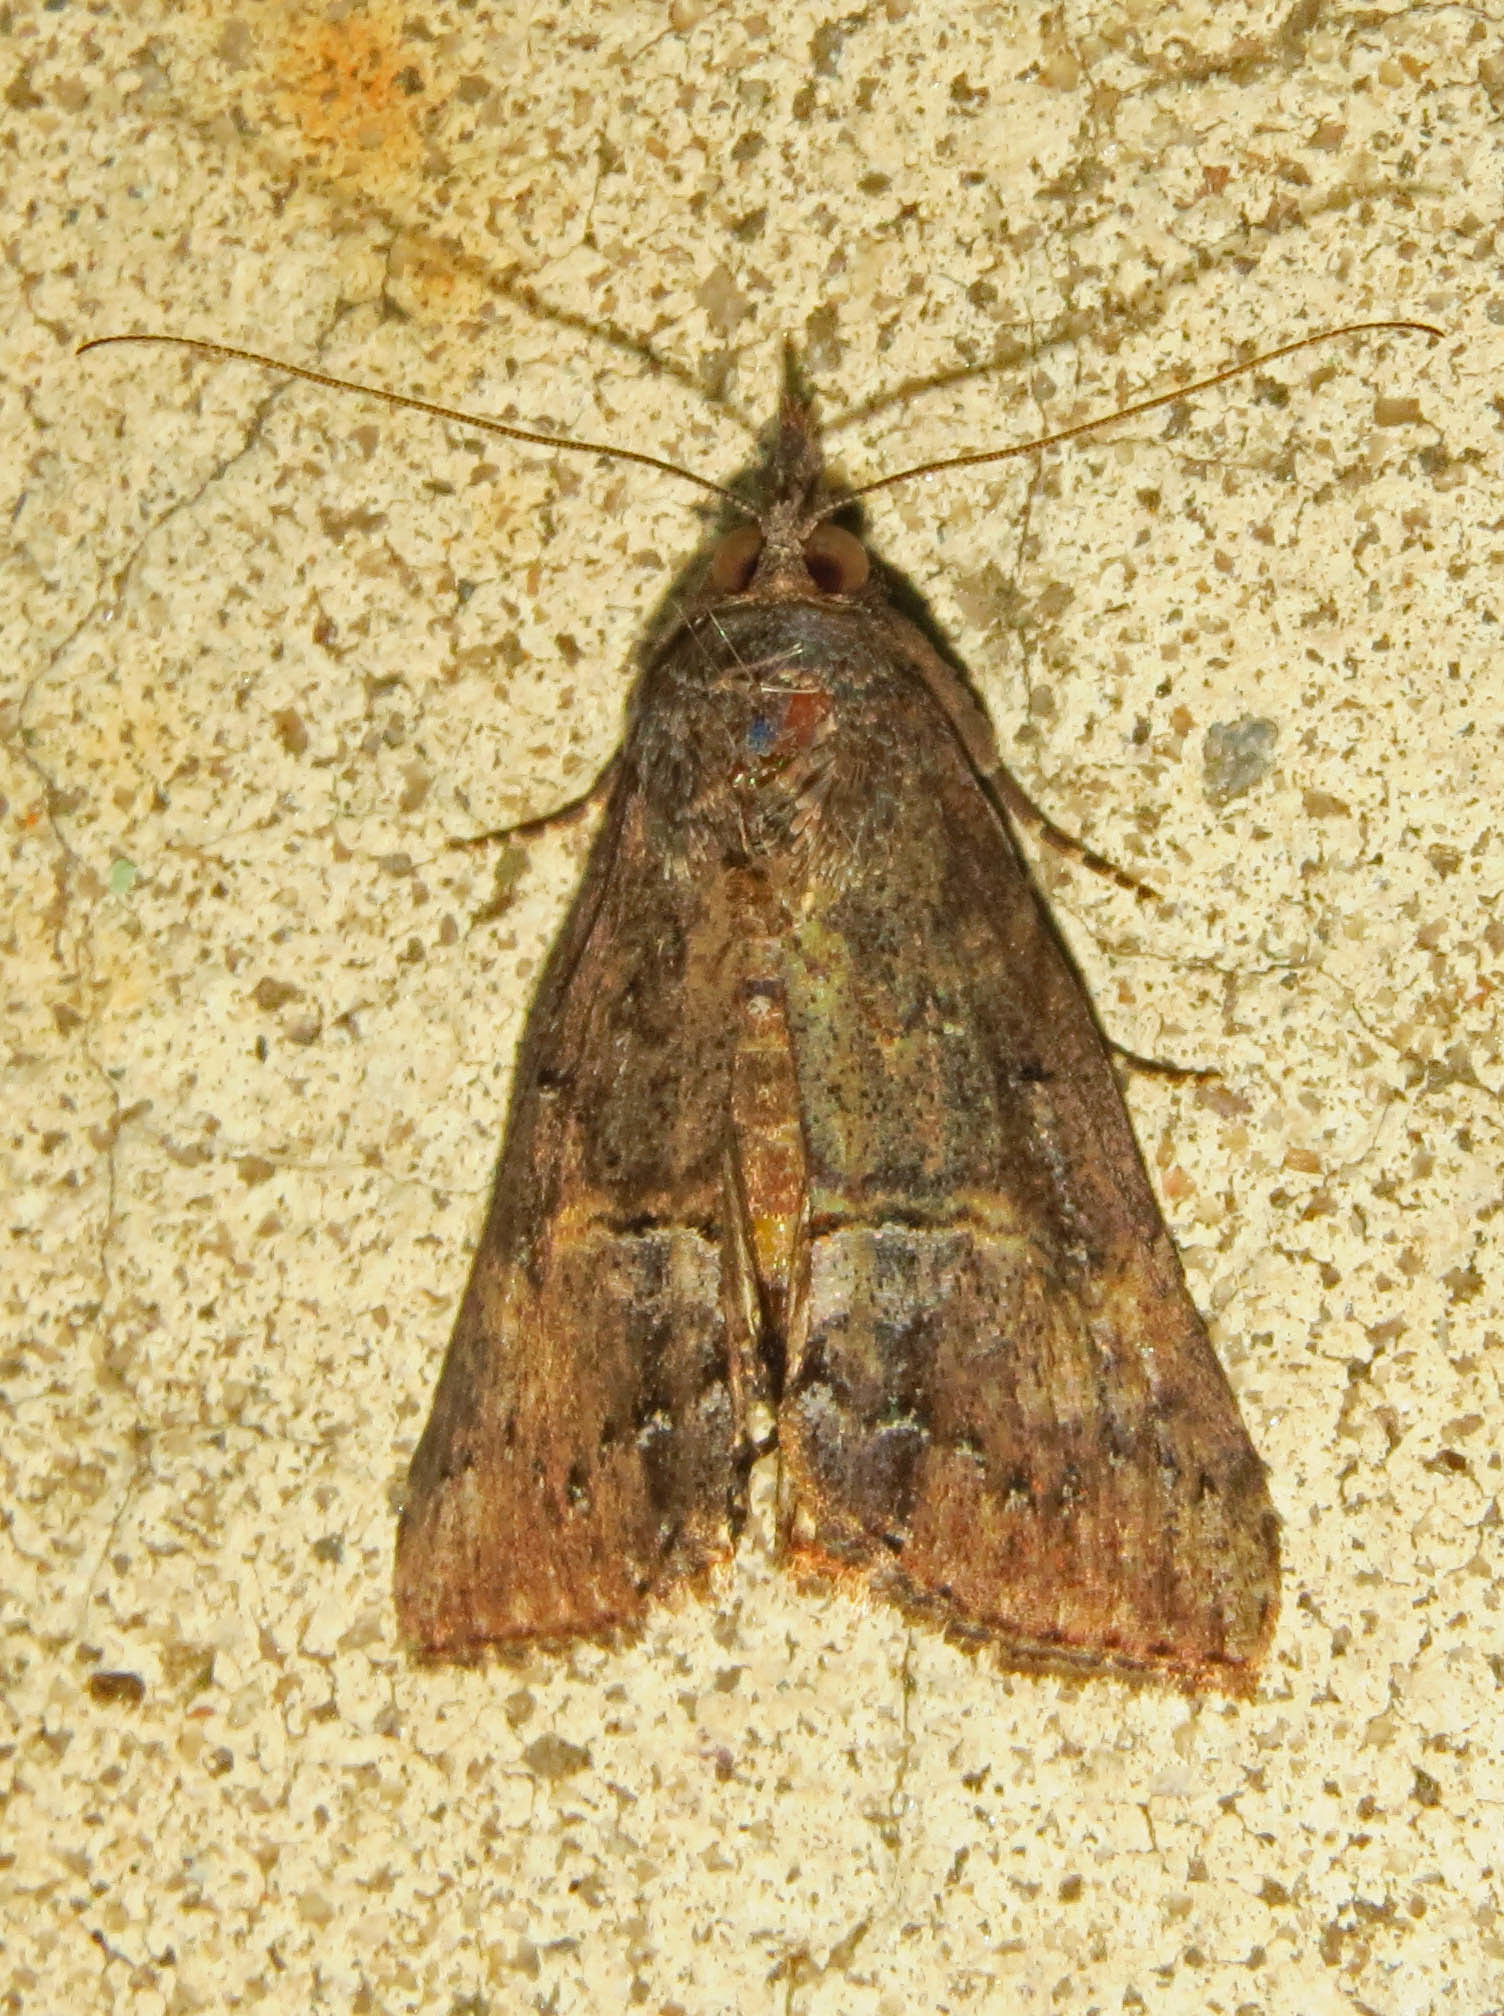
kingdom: Animalia
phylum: Arthropoda
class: Insecta
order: Lepidoptera
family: Erebidae
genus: Hypena
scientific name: Hypena scabra
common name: Green cloverworm
